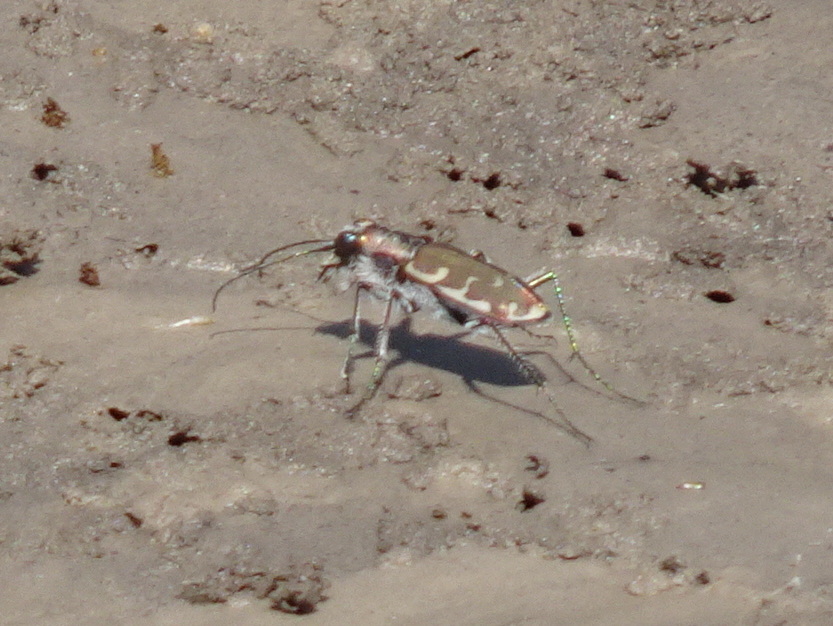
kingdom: Animalia
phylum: Arthropoda
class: Insecta
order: Coleoptera
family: Carabidae
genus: Cicindela
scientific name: Cicindela repanda
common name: Bronzed tiger beetle
